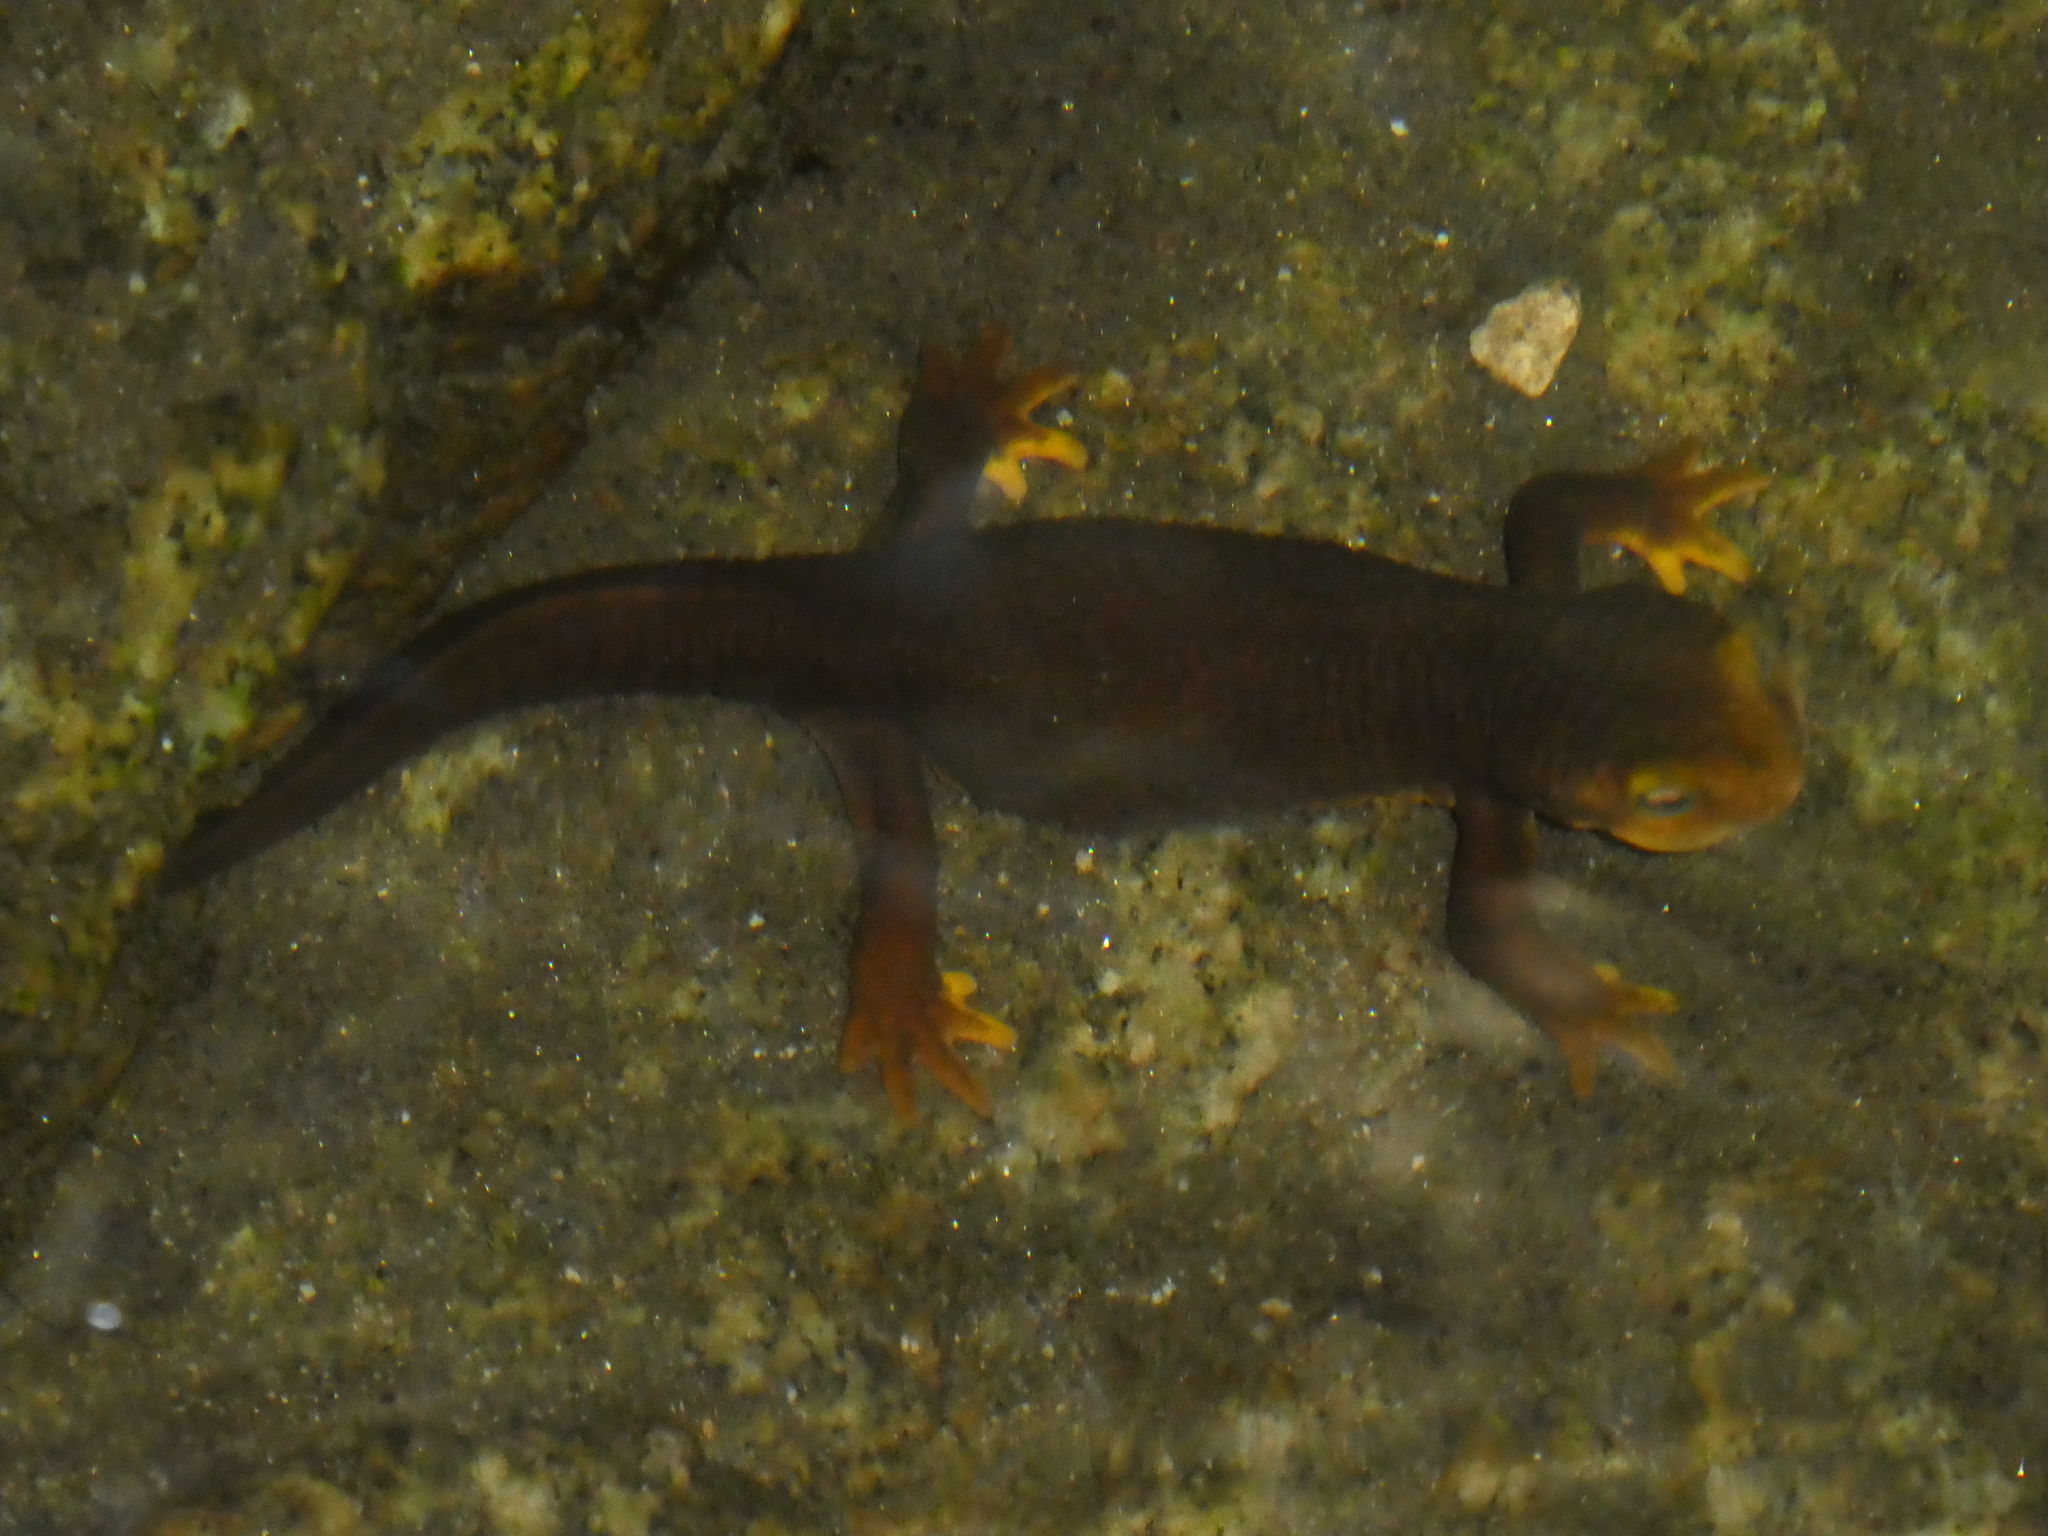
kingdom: Animalia
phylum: Chordata
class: Amphibia
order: Caudata
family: Salamandridae
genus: Taricha
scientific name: Taricha torosa
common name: California newt
